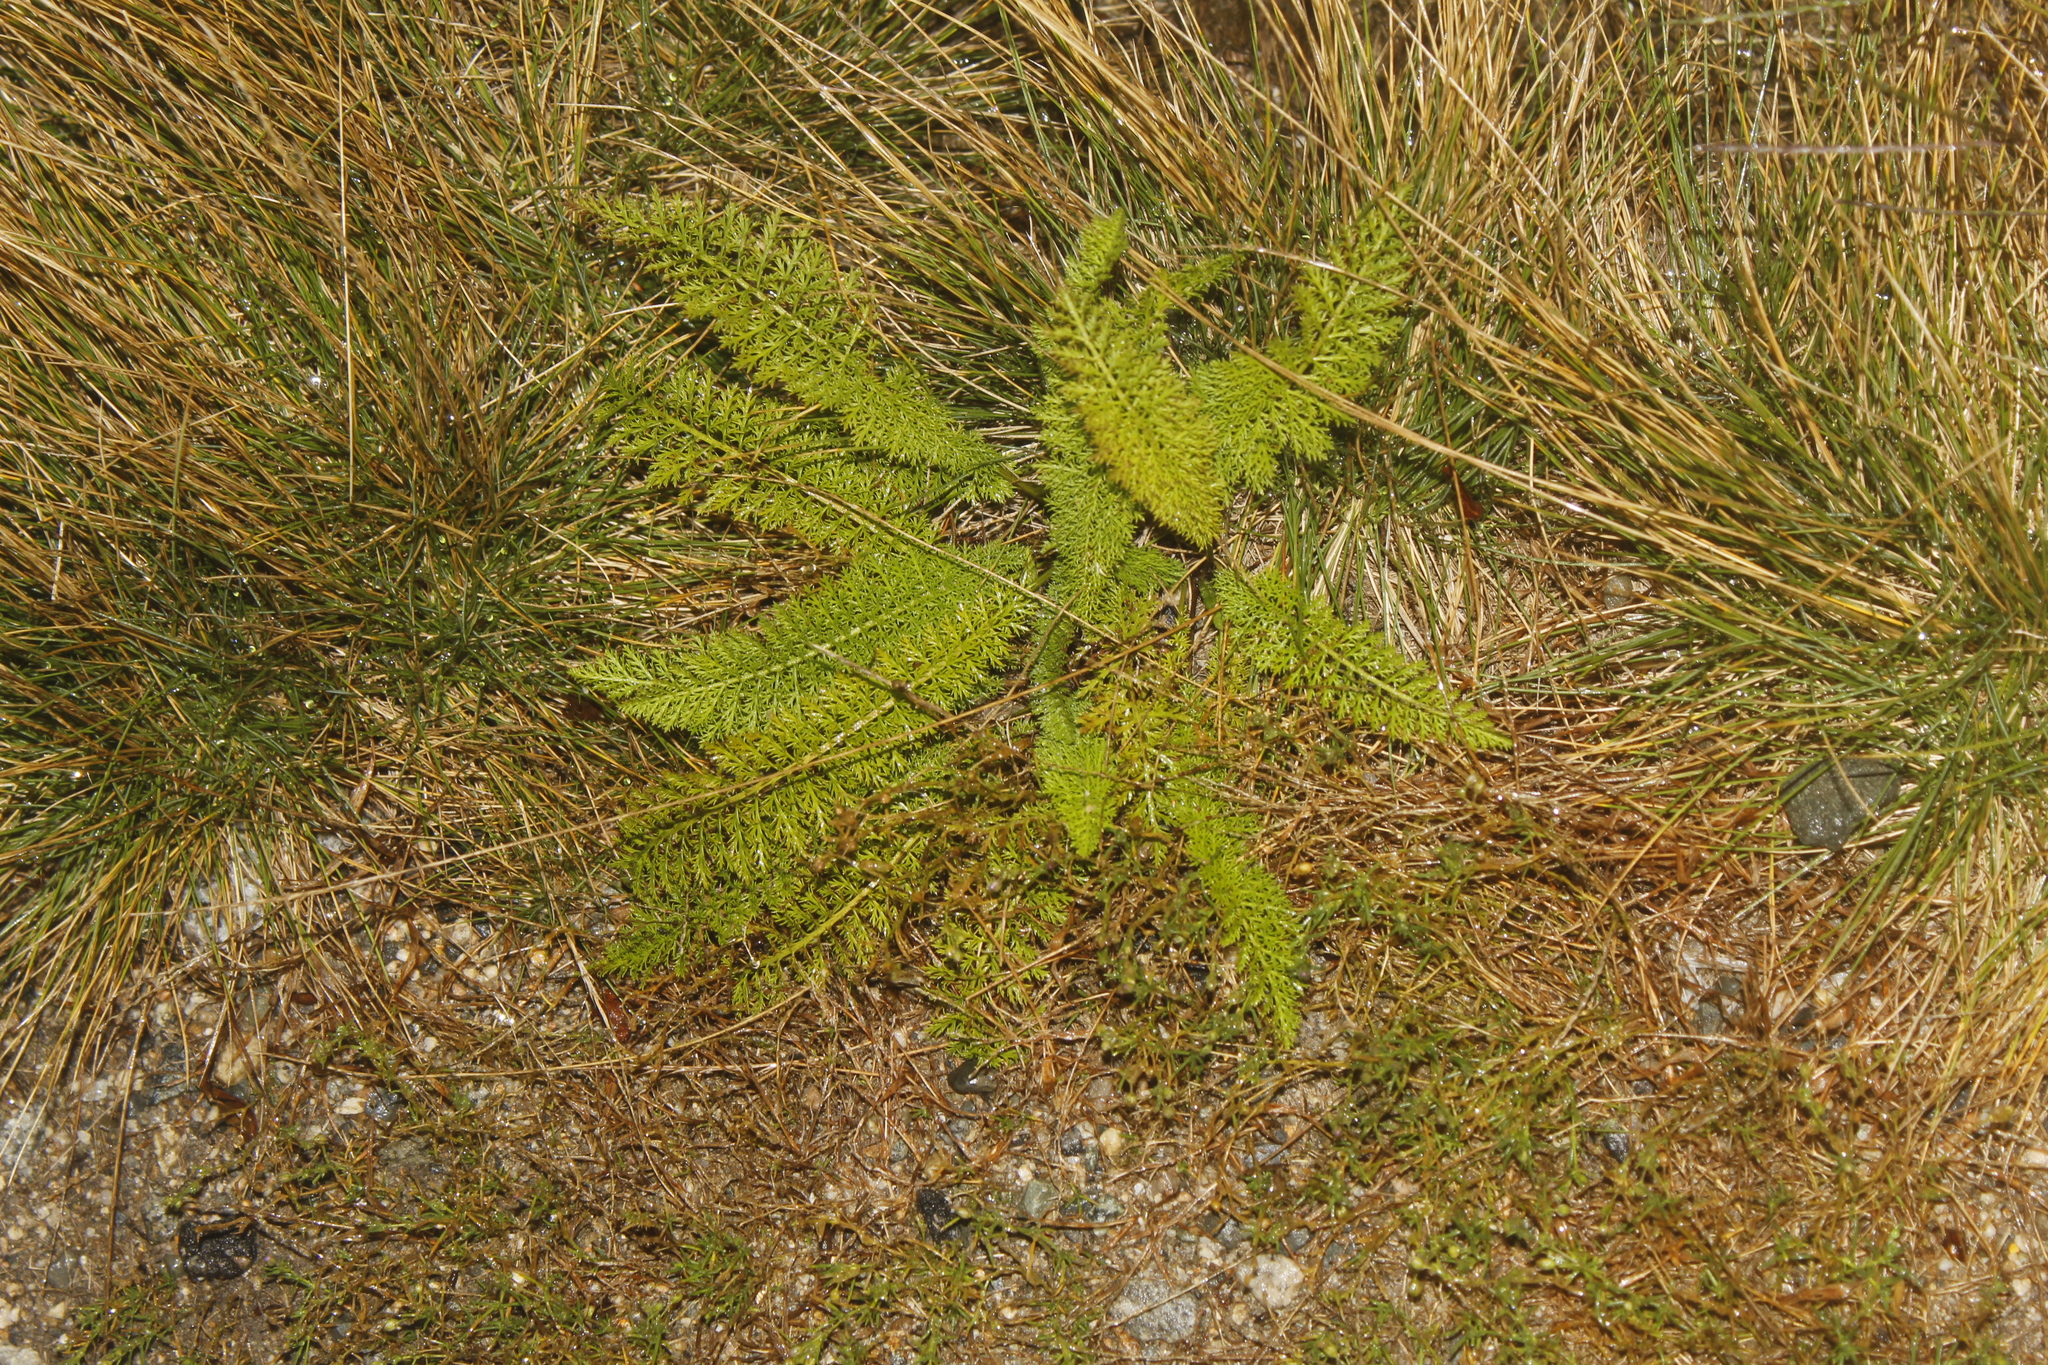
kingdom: Plantae
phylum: Tracheophyta
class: Magnoliopsida
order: Asterales
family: Asteraceae
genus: Achillea
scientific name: Achillea millefolium
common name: Yarrow
